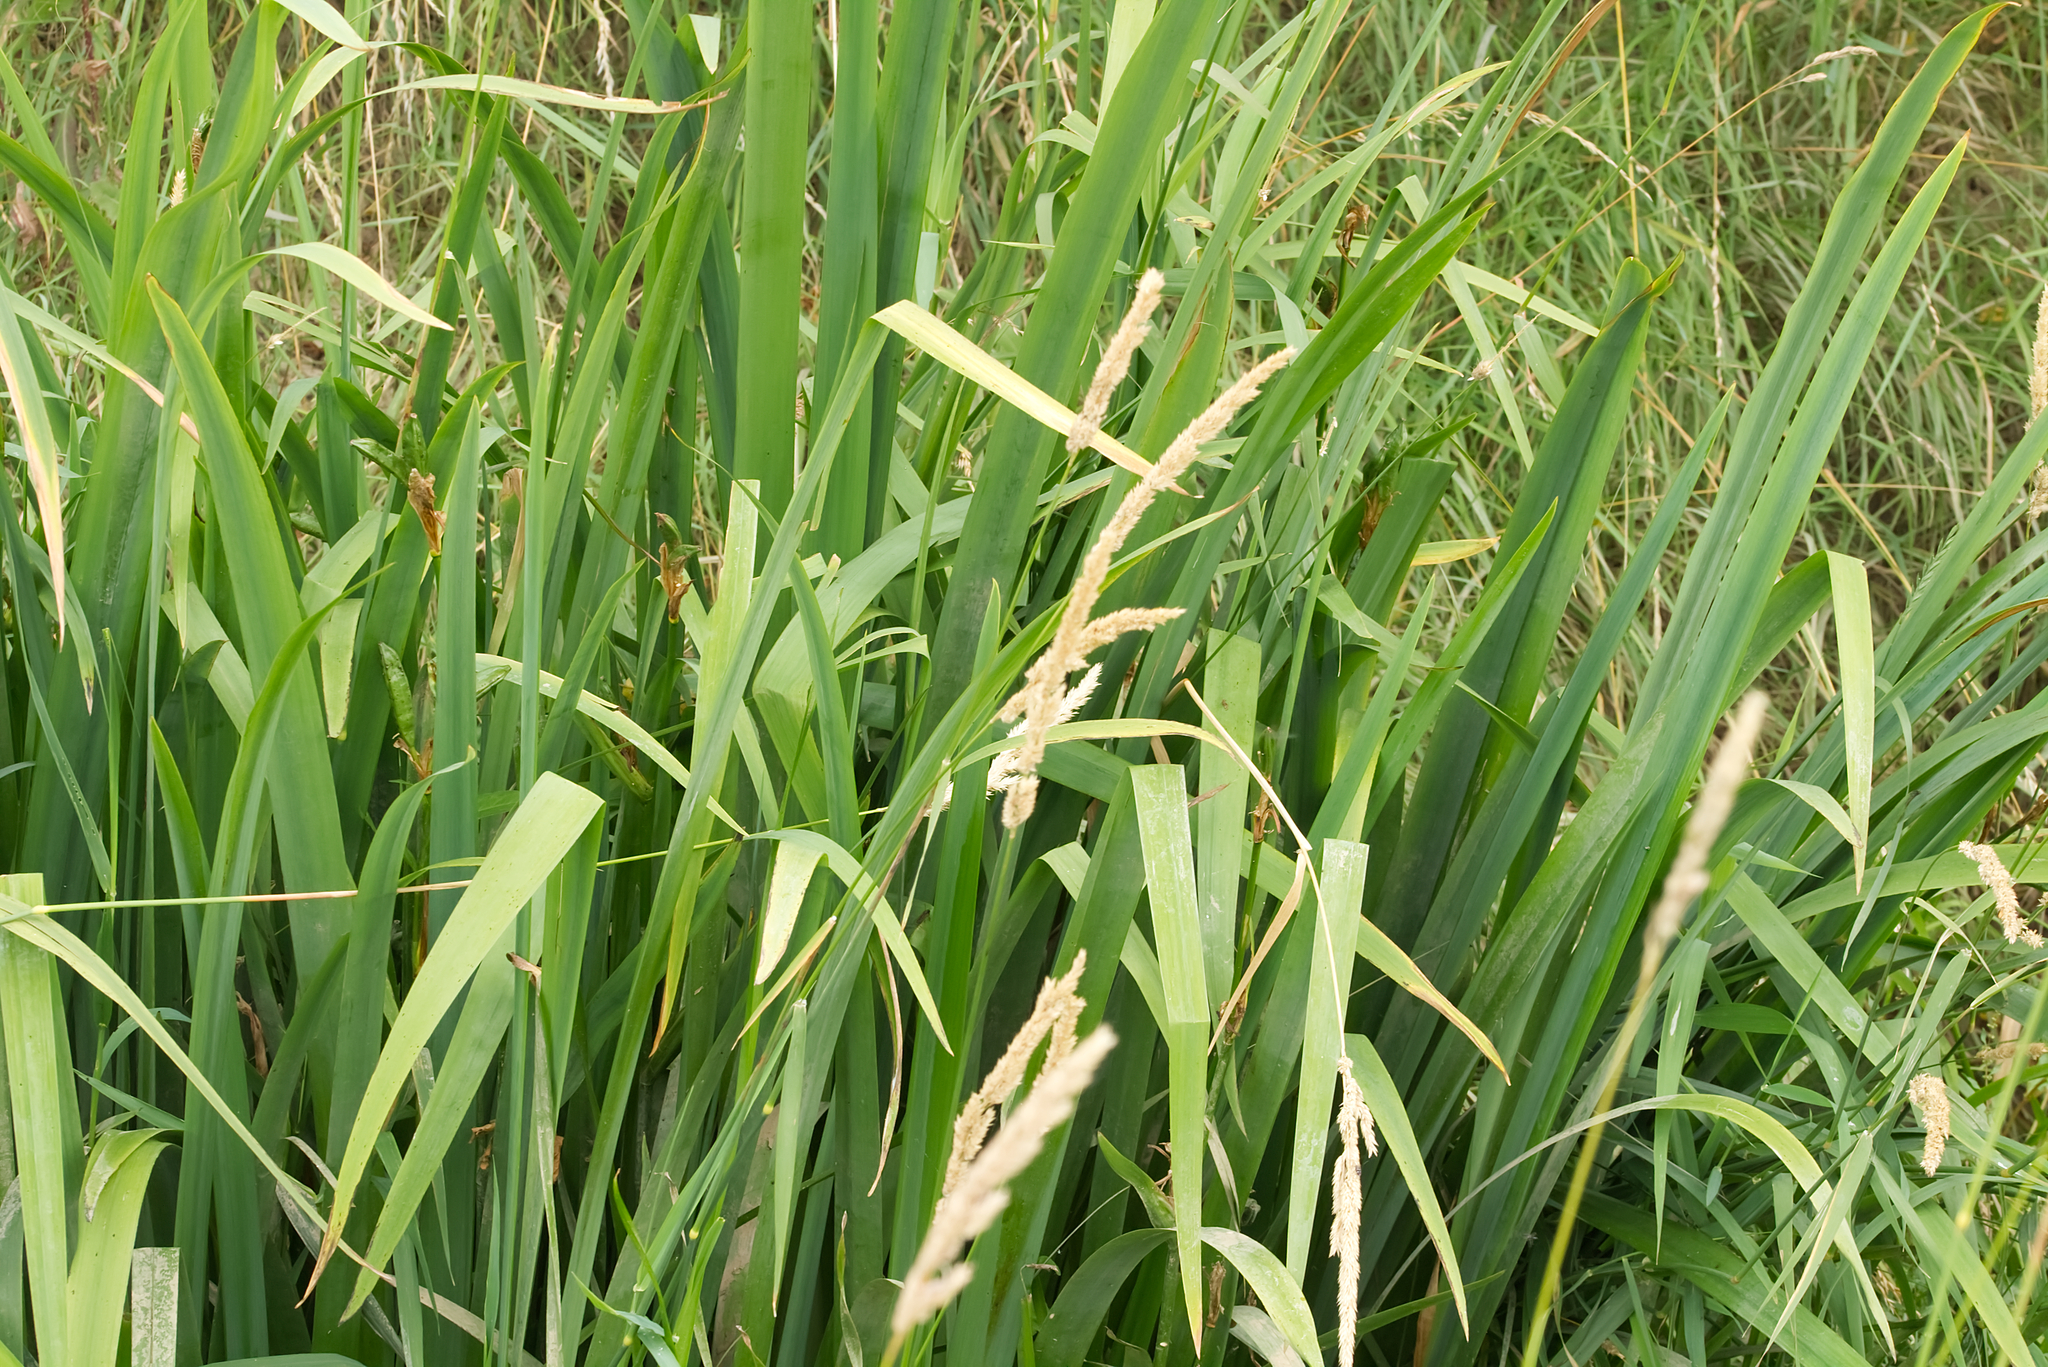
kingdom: Plantae
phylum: Tracheophyta
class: Liliopsida
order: Asparagales
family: Iridaceae
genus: Iris
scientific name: Iris pseudacorus
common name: Yellow flag
